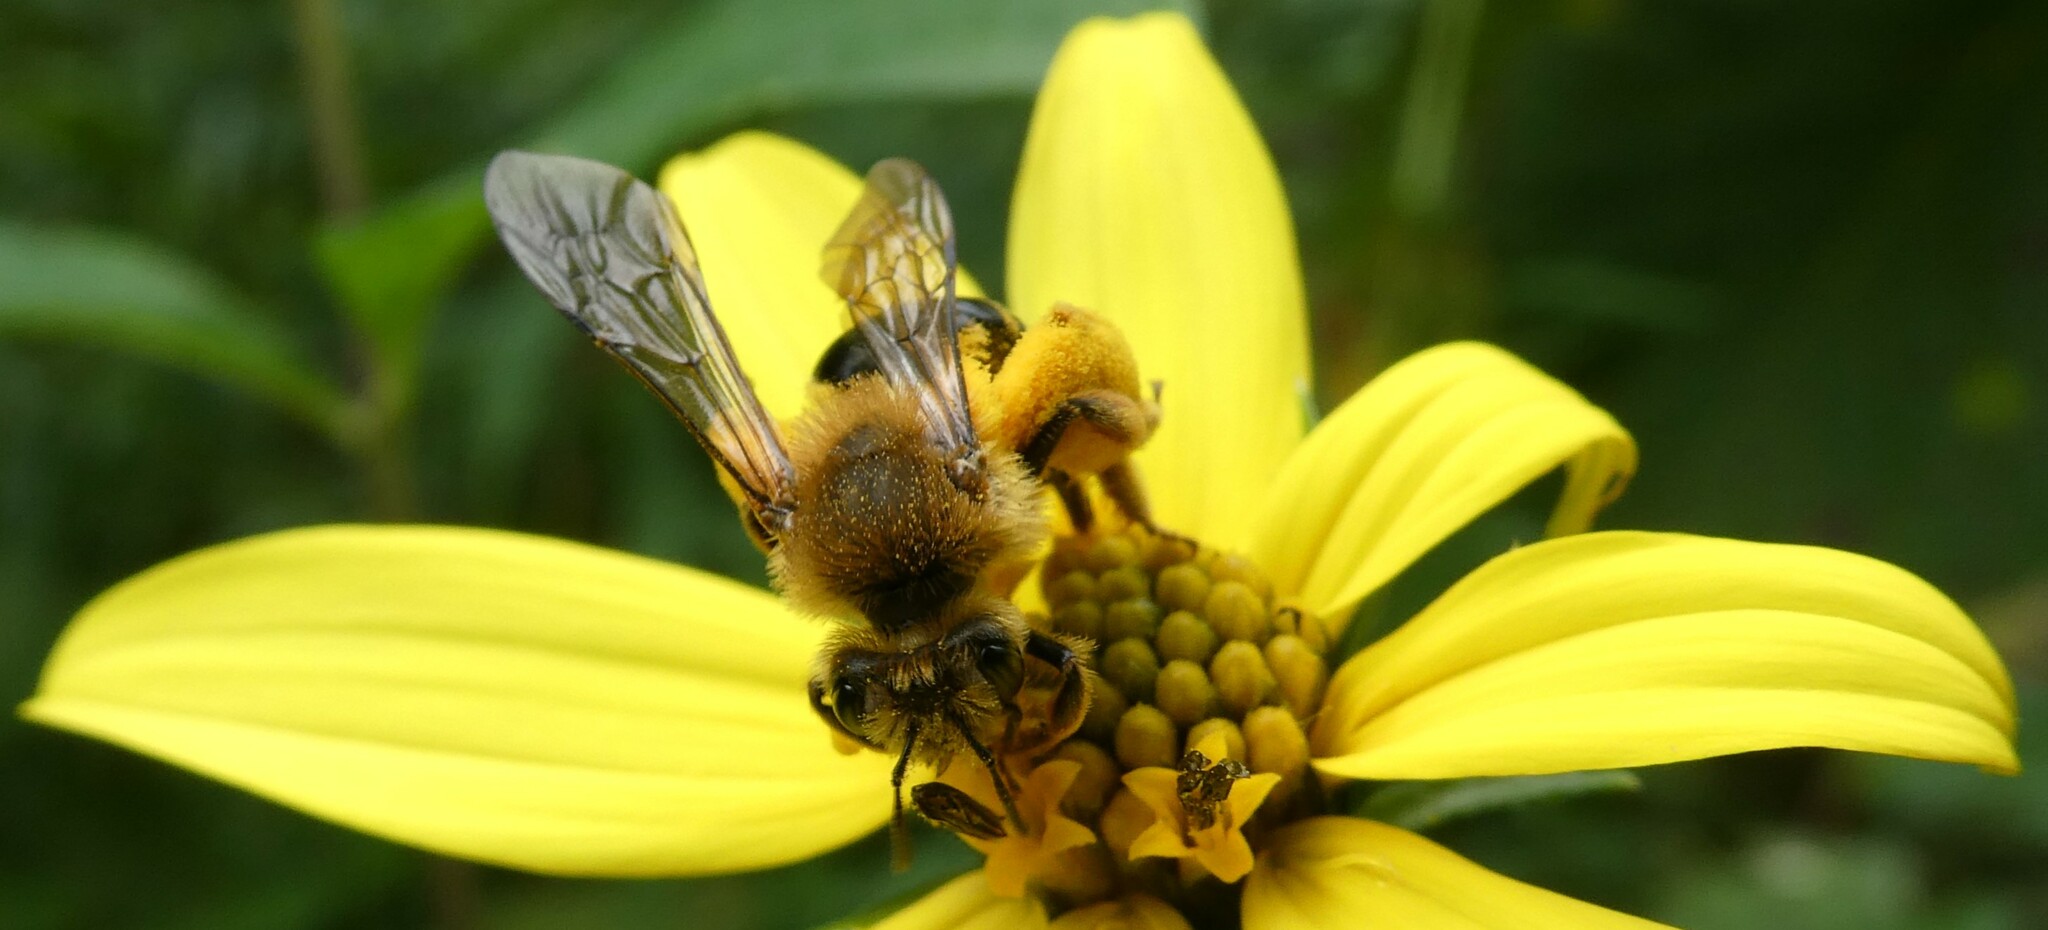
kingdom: Animalia
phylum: Arthropoda
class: Insecta
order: Hymenoptera
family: Andrenidae
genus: Andrena
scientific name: Andrena helianthi
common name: Sunflower mining bee
